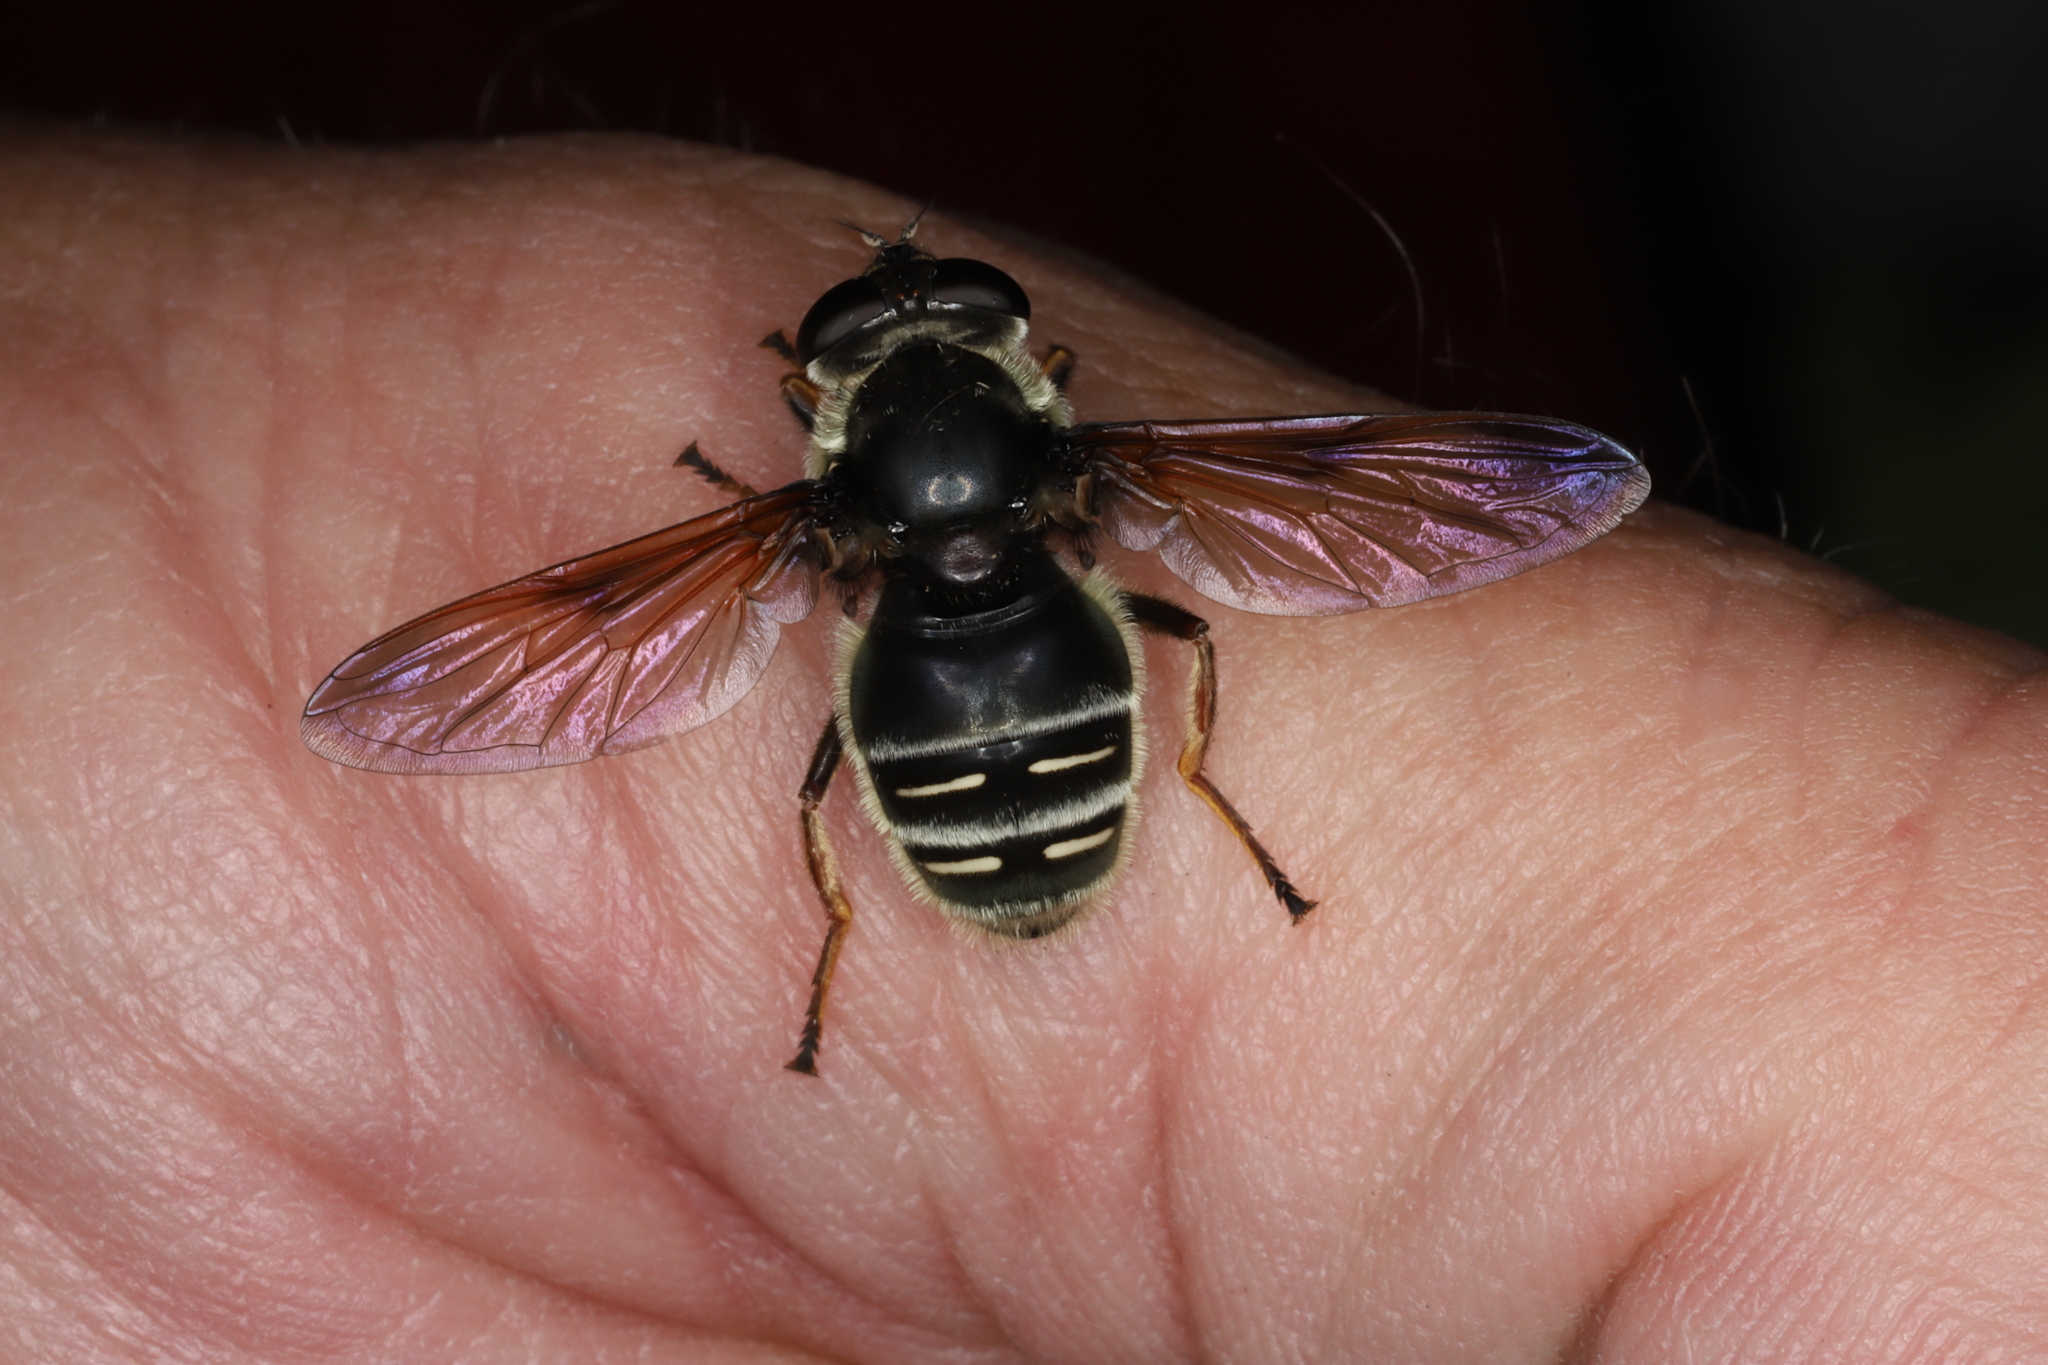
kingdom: Animalia
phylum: Arthropoda
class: Insecta
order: Diptera
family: Syrphidae
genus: Sericomyia
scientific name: Sericomyia militaris
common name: Narrow-banded pond fly
